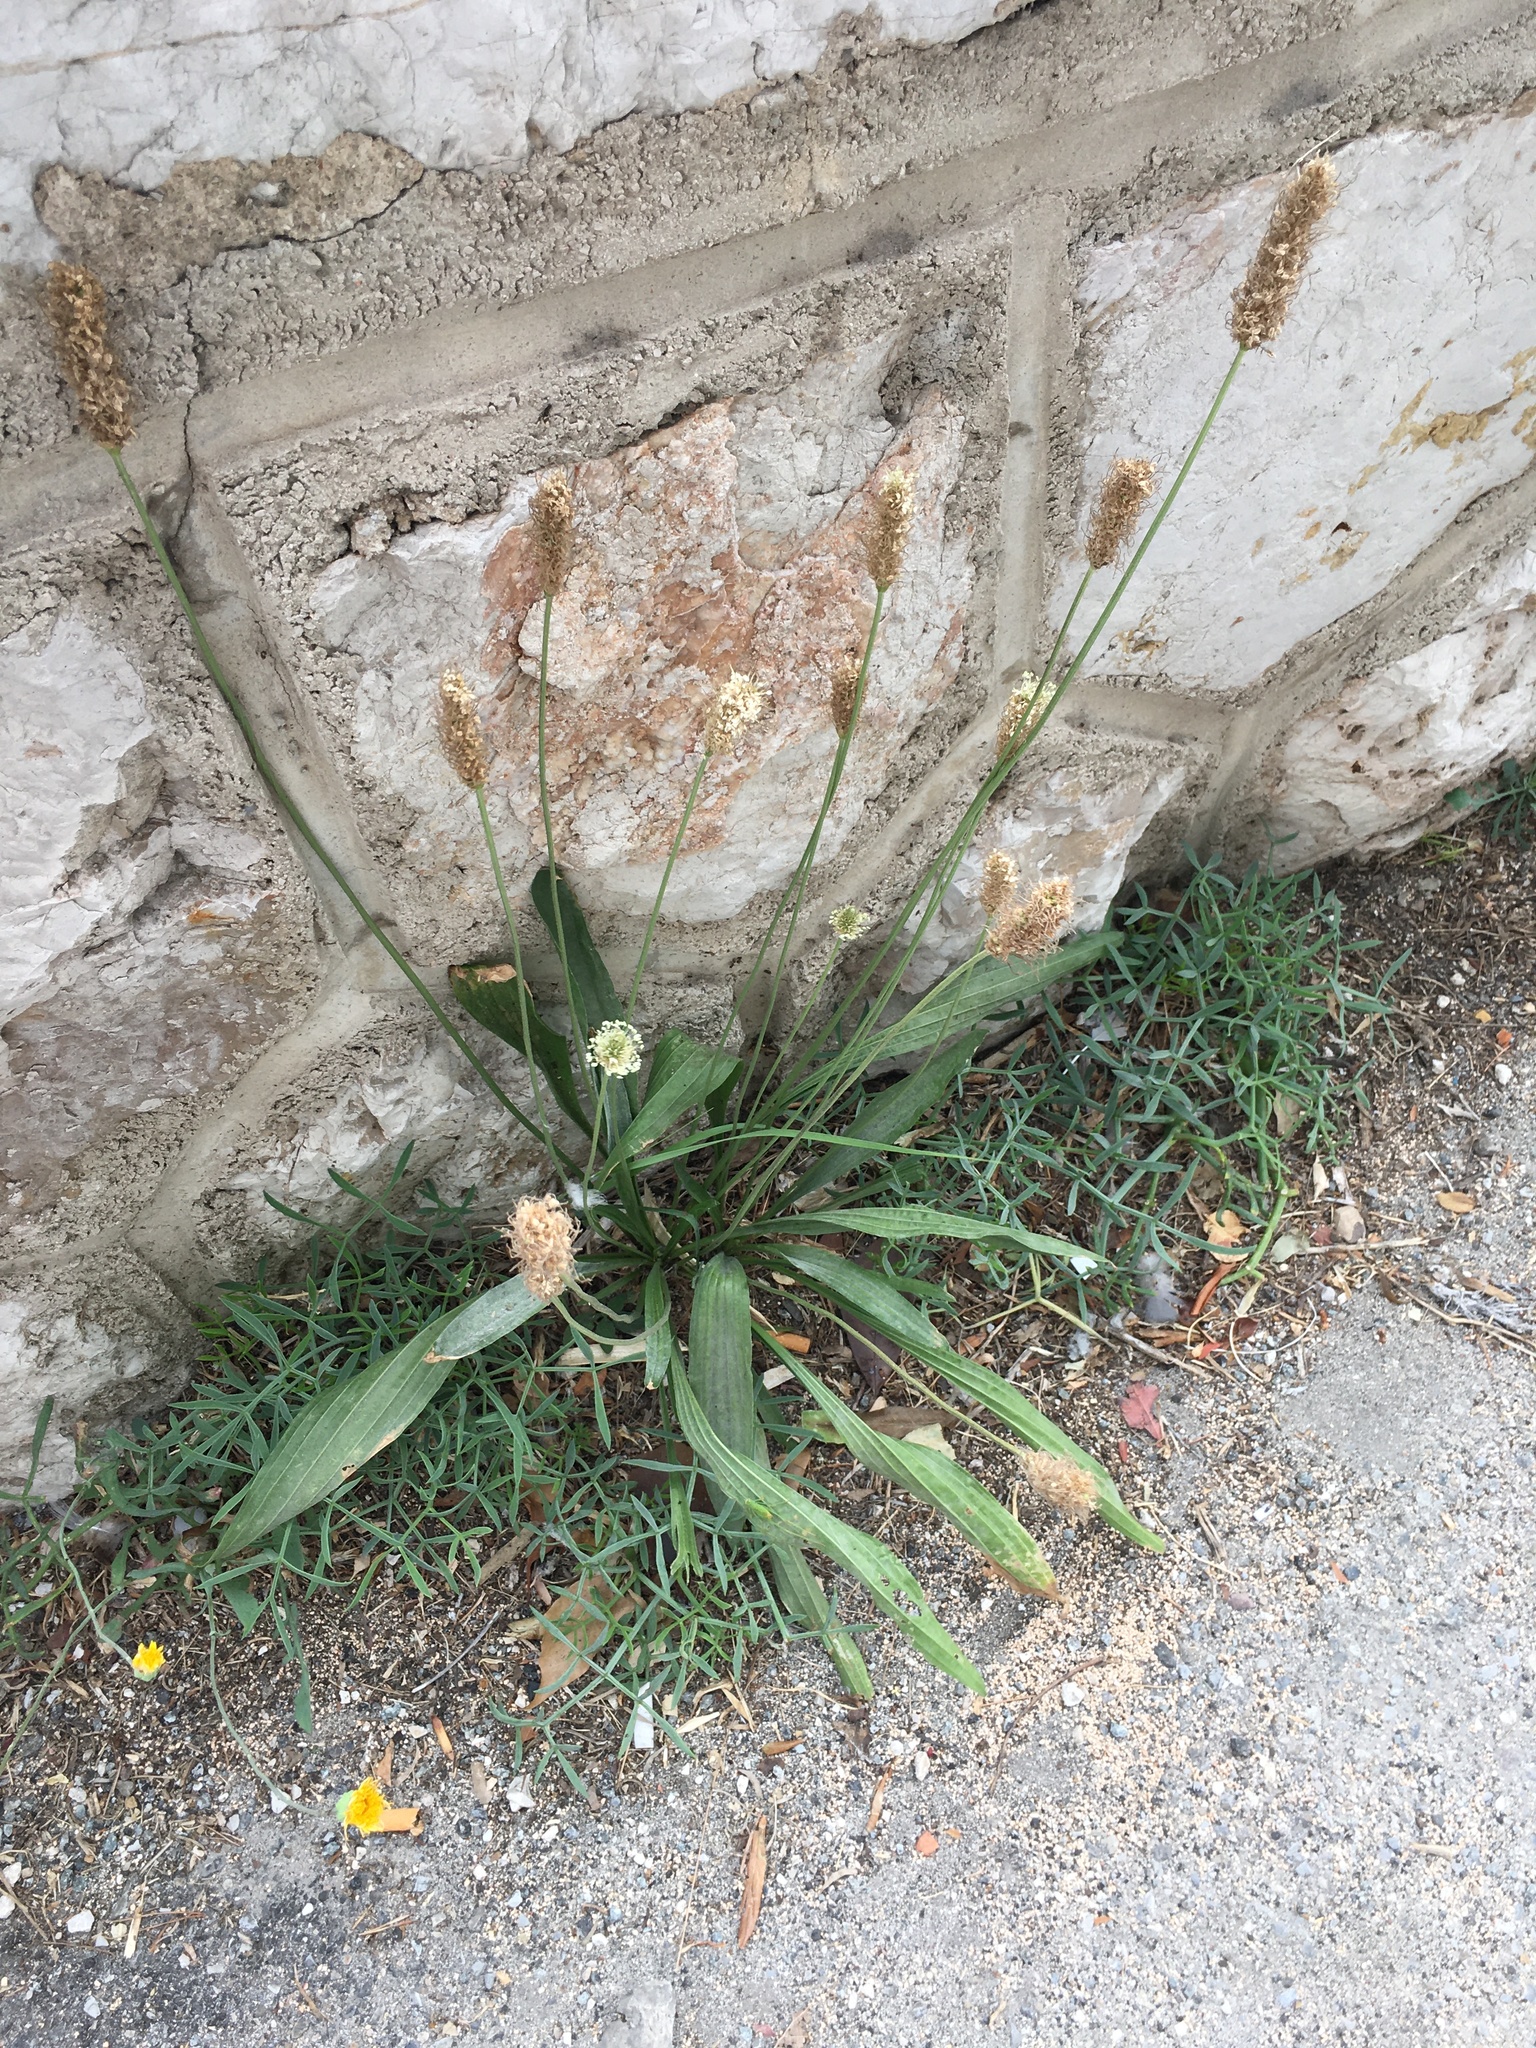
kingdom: Plantae
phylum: Tracheophyta
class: Magnoliopsida
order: Lamiales
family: Plantaginaceae
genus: Plantago
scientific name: Plantago lanceolata
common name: Ribwort plantain
